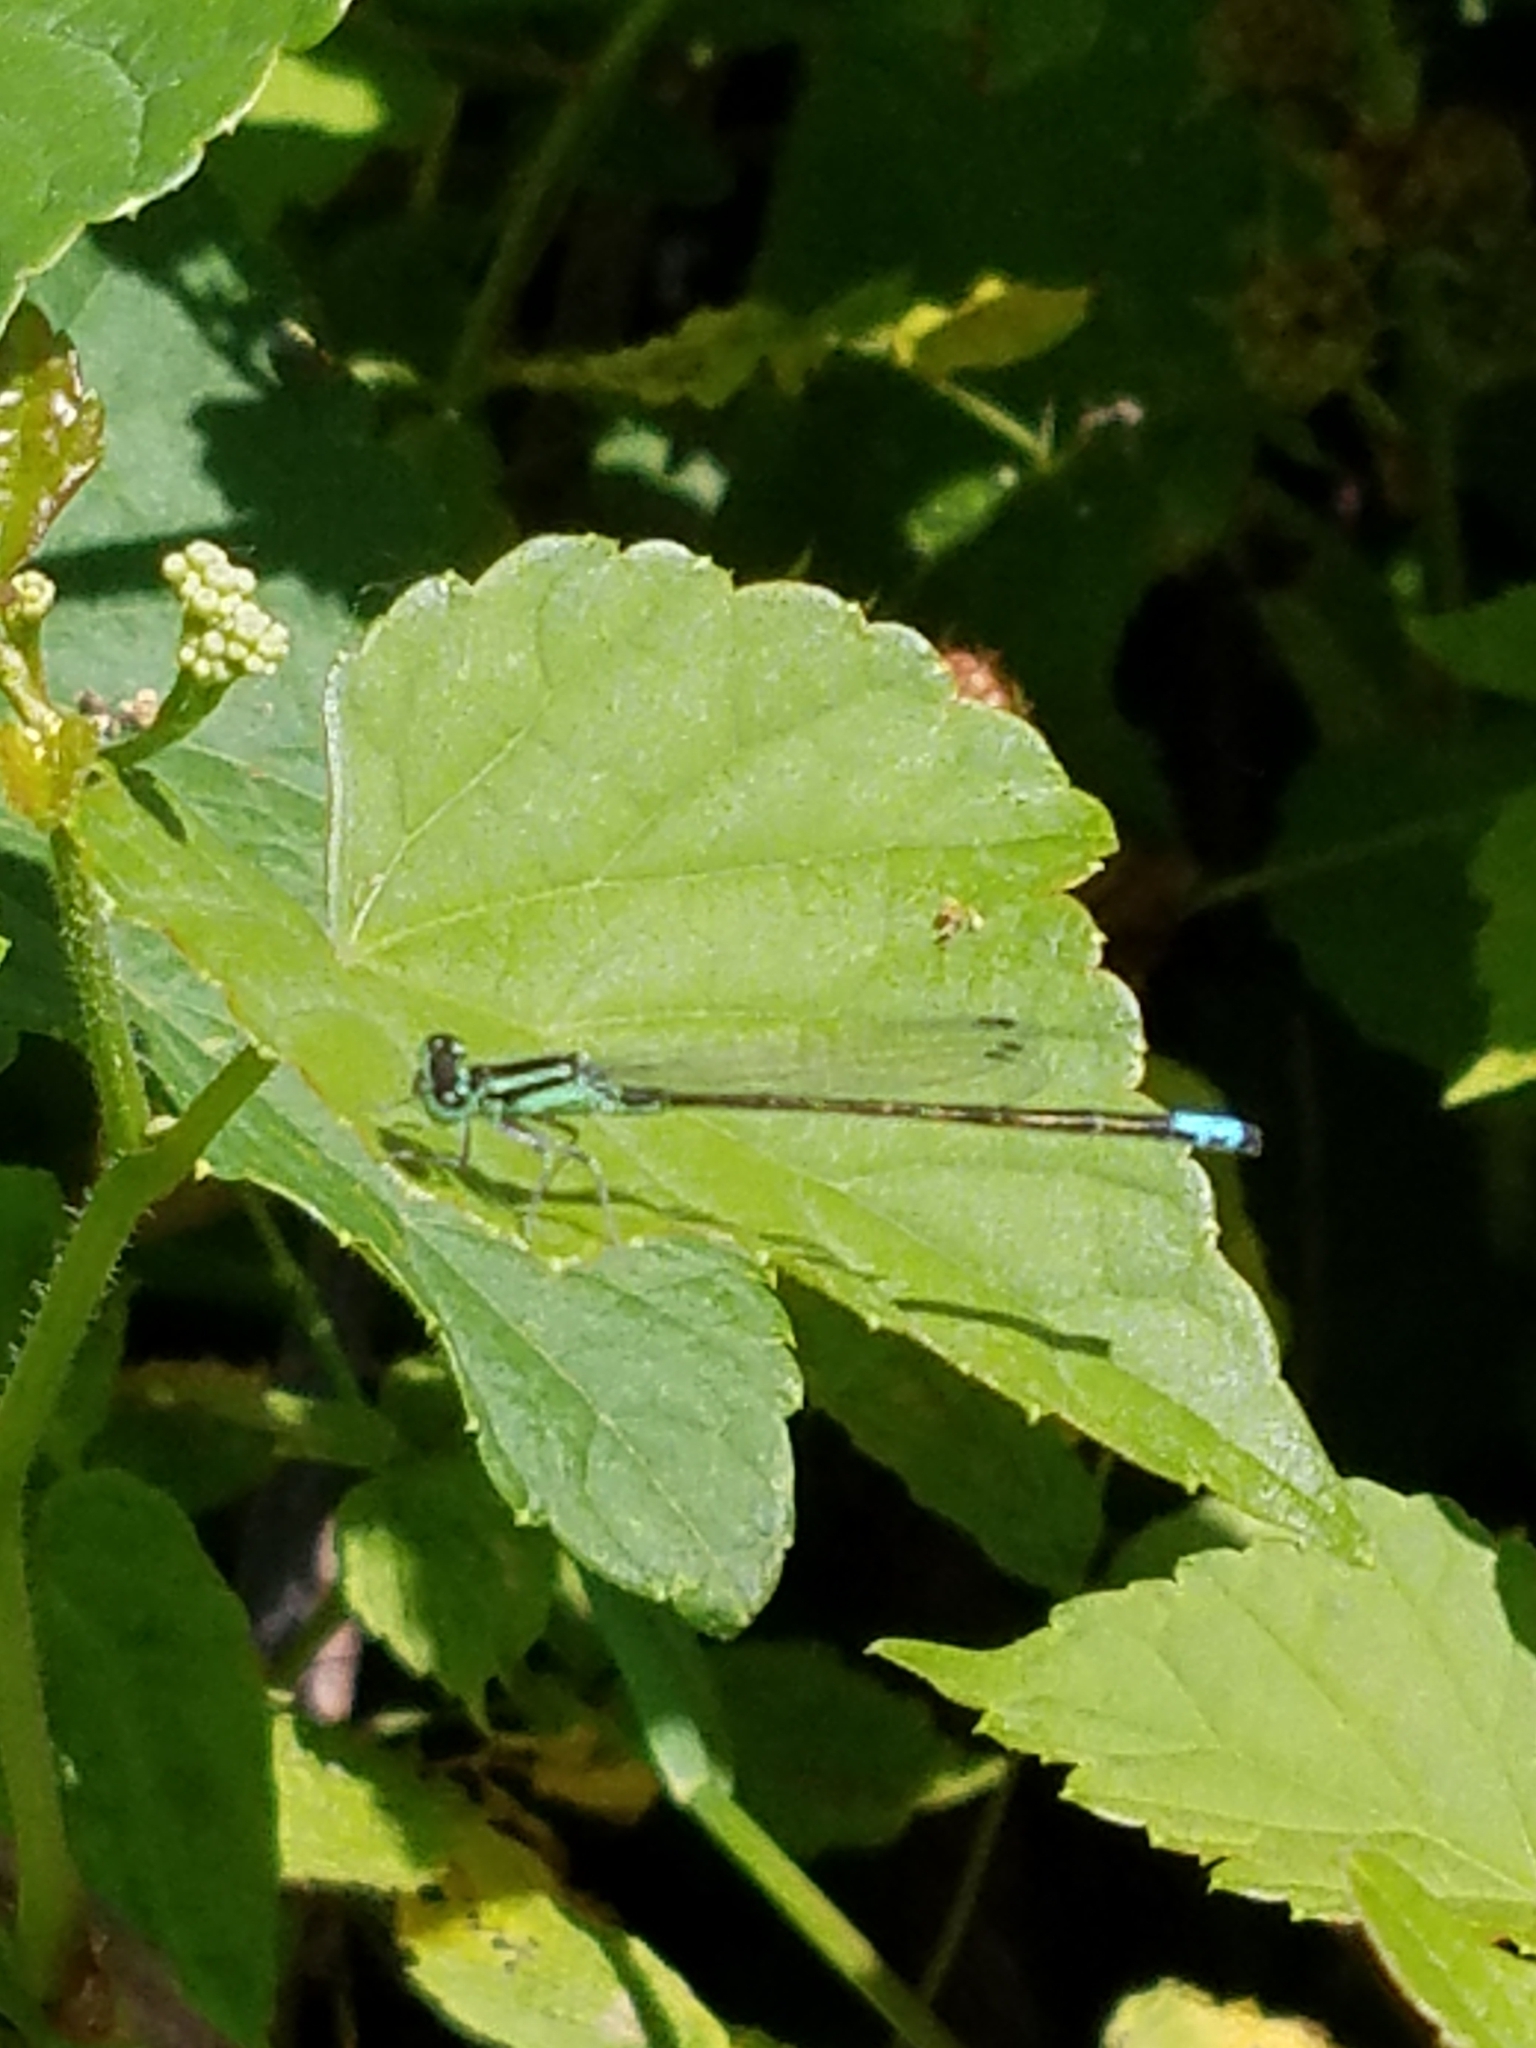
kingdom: Animalia
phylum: Arthropoda
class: Insecta
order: Odonata
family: Coenagrionidae
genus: Ischnura
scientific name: Ischnura verticalis
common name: Eastern forktail
